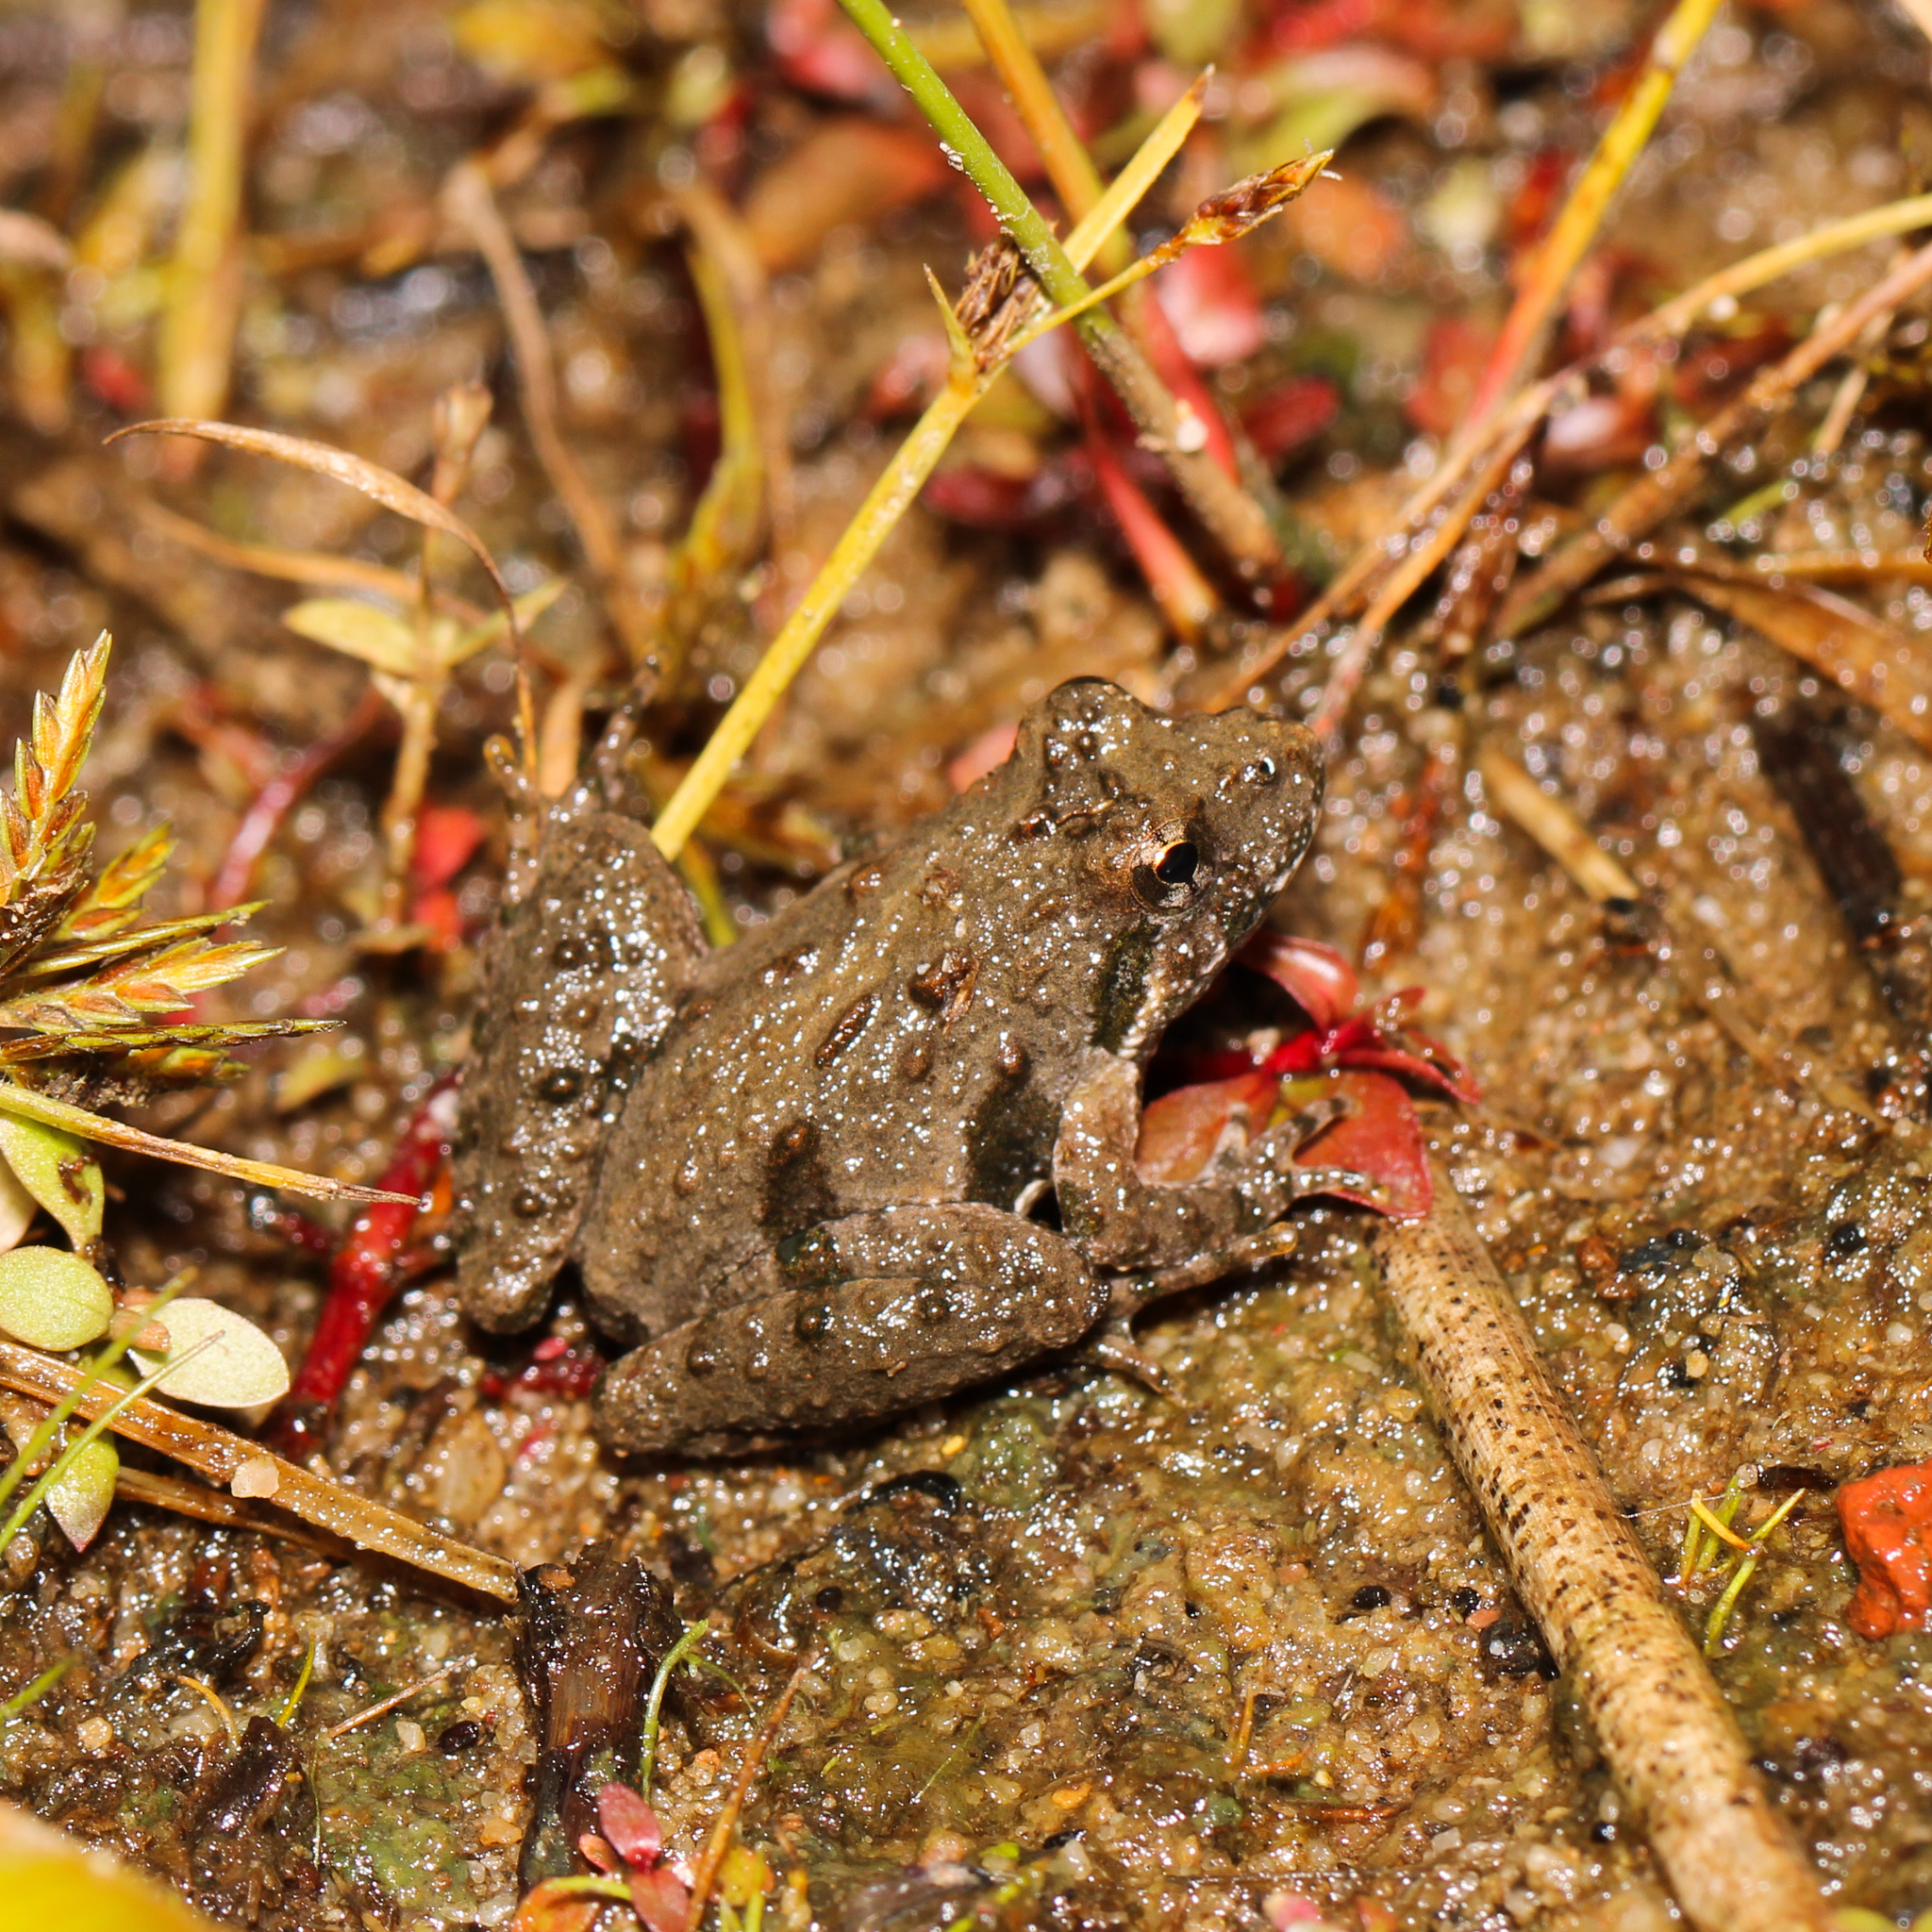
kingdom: Animalia
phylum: Chordata
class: Amphibia
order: Anura
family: Hylidae
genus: Acris
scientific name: Acris crepitans
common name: Northern cricket frog
